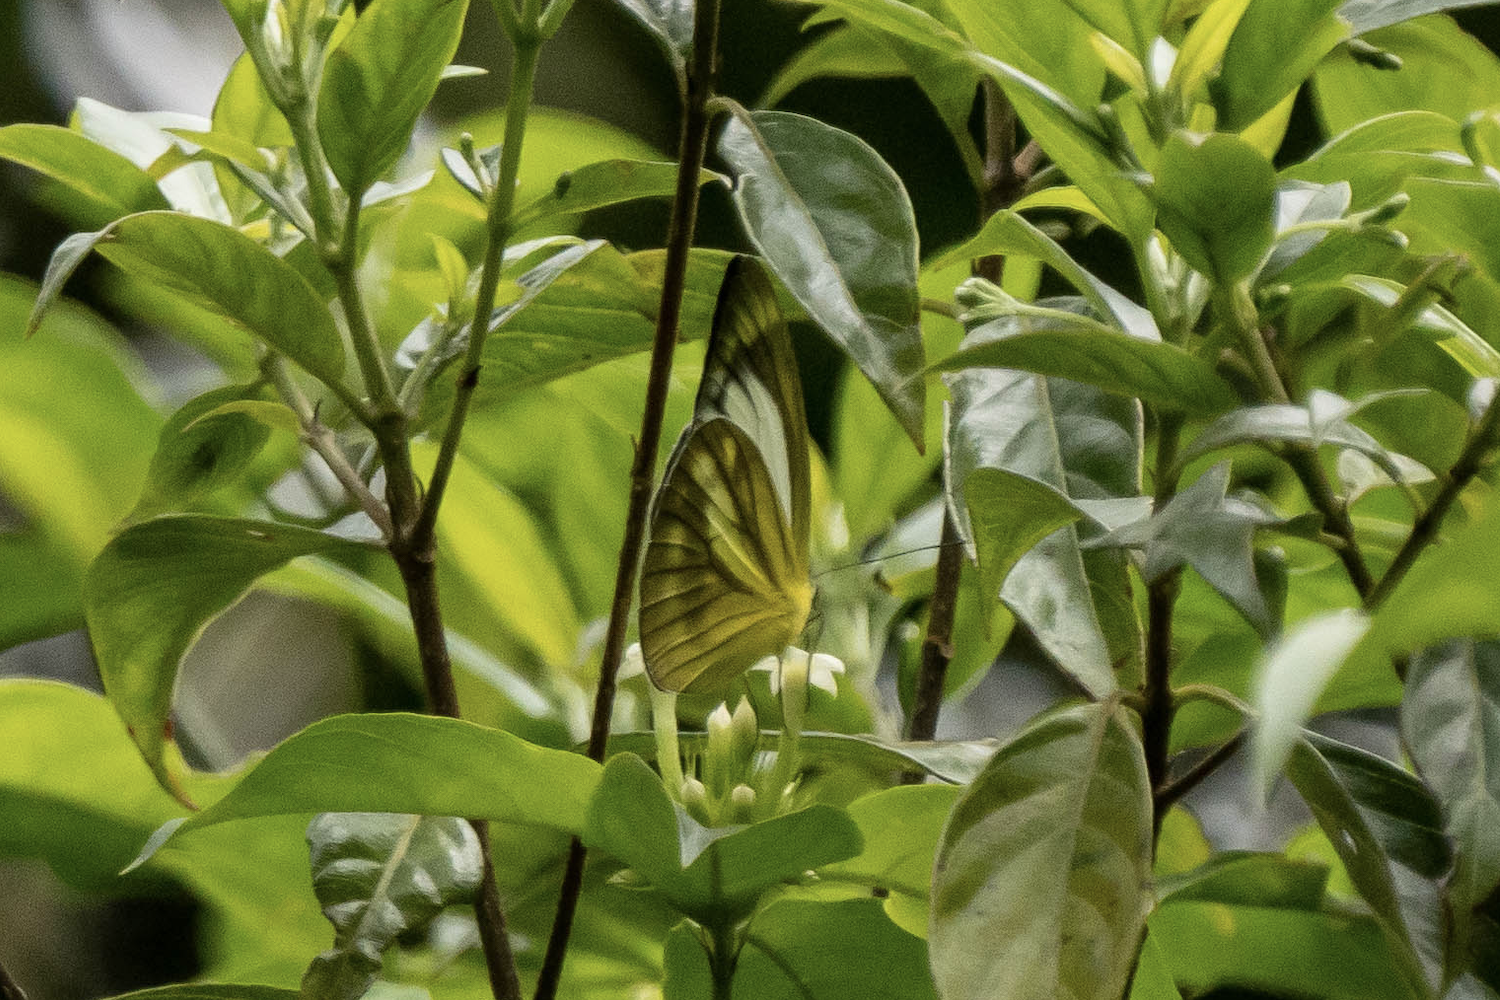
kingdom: Animalia
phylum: Arthropoda
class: Insecta
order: Lepidoptera
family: Pieridae
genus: Cepora
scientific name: Cepora nadina
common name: Lesser gull
